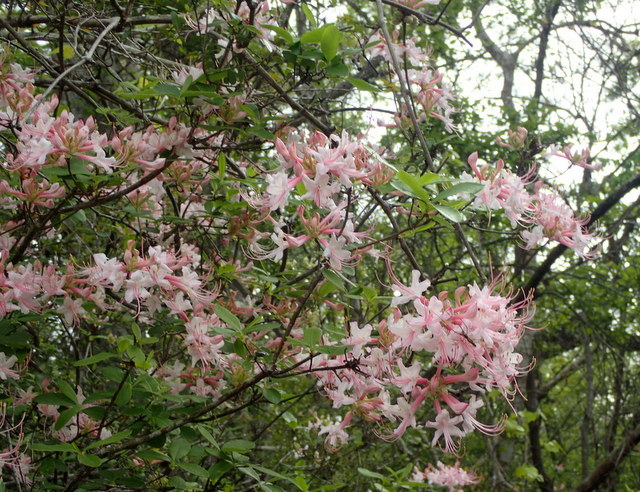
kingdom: Plantae
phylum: Tracheophyta
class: Magnoliopsida
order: Ericales
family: Ericaceae
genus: Rhododendron
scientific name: Rhododendron canescens
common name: Mountain azalea
